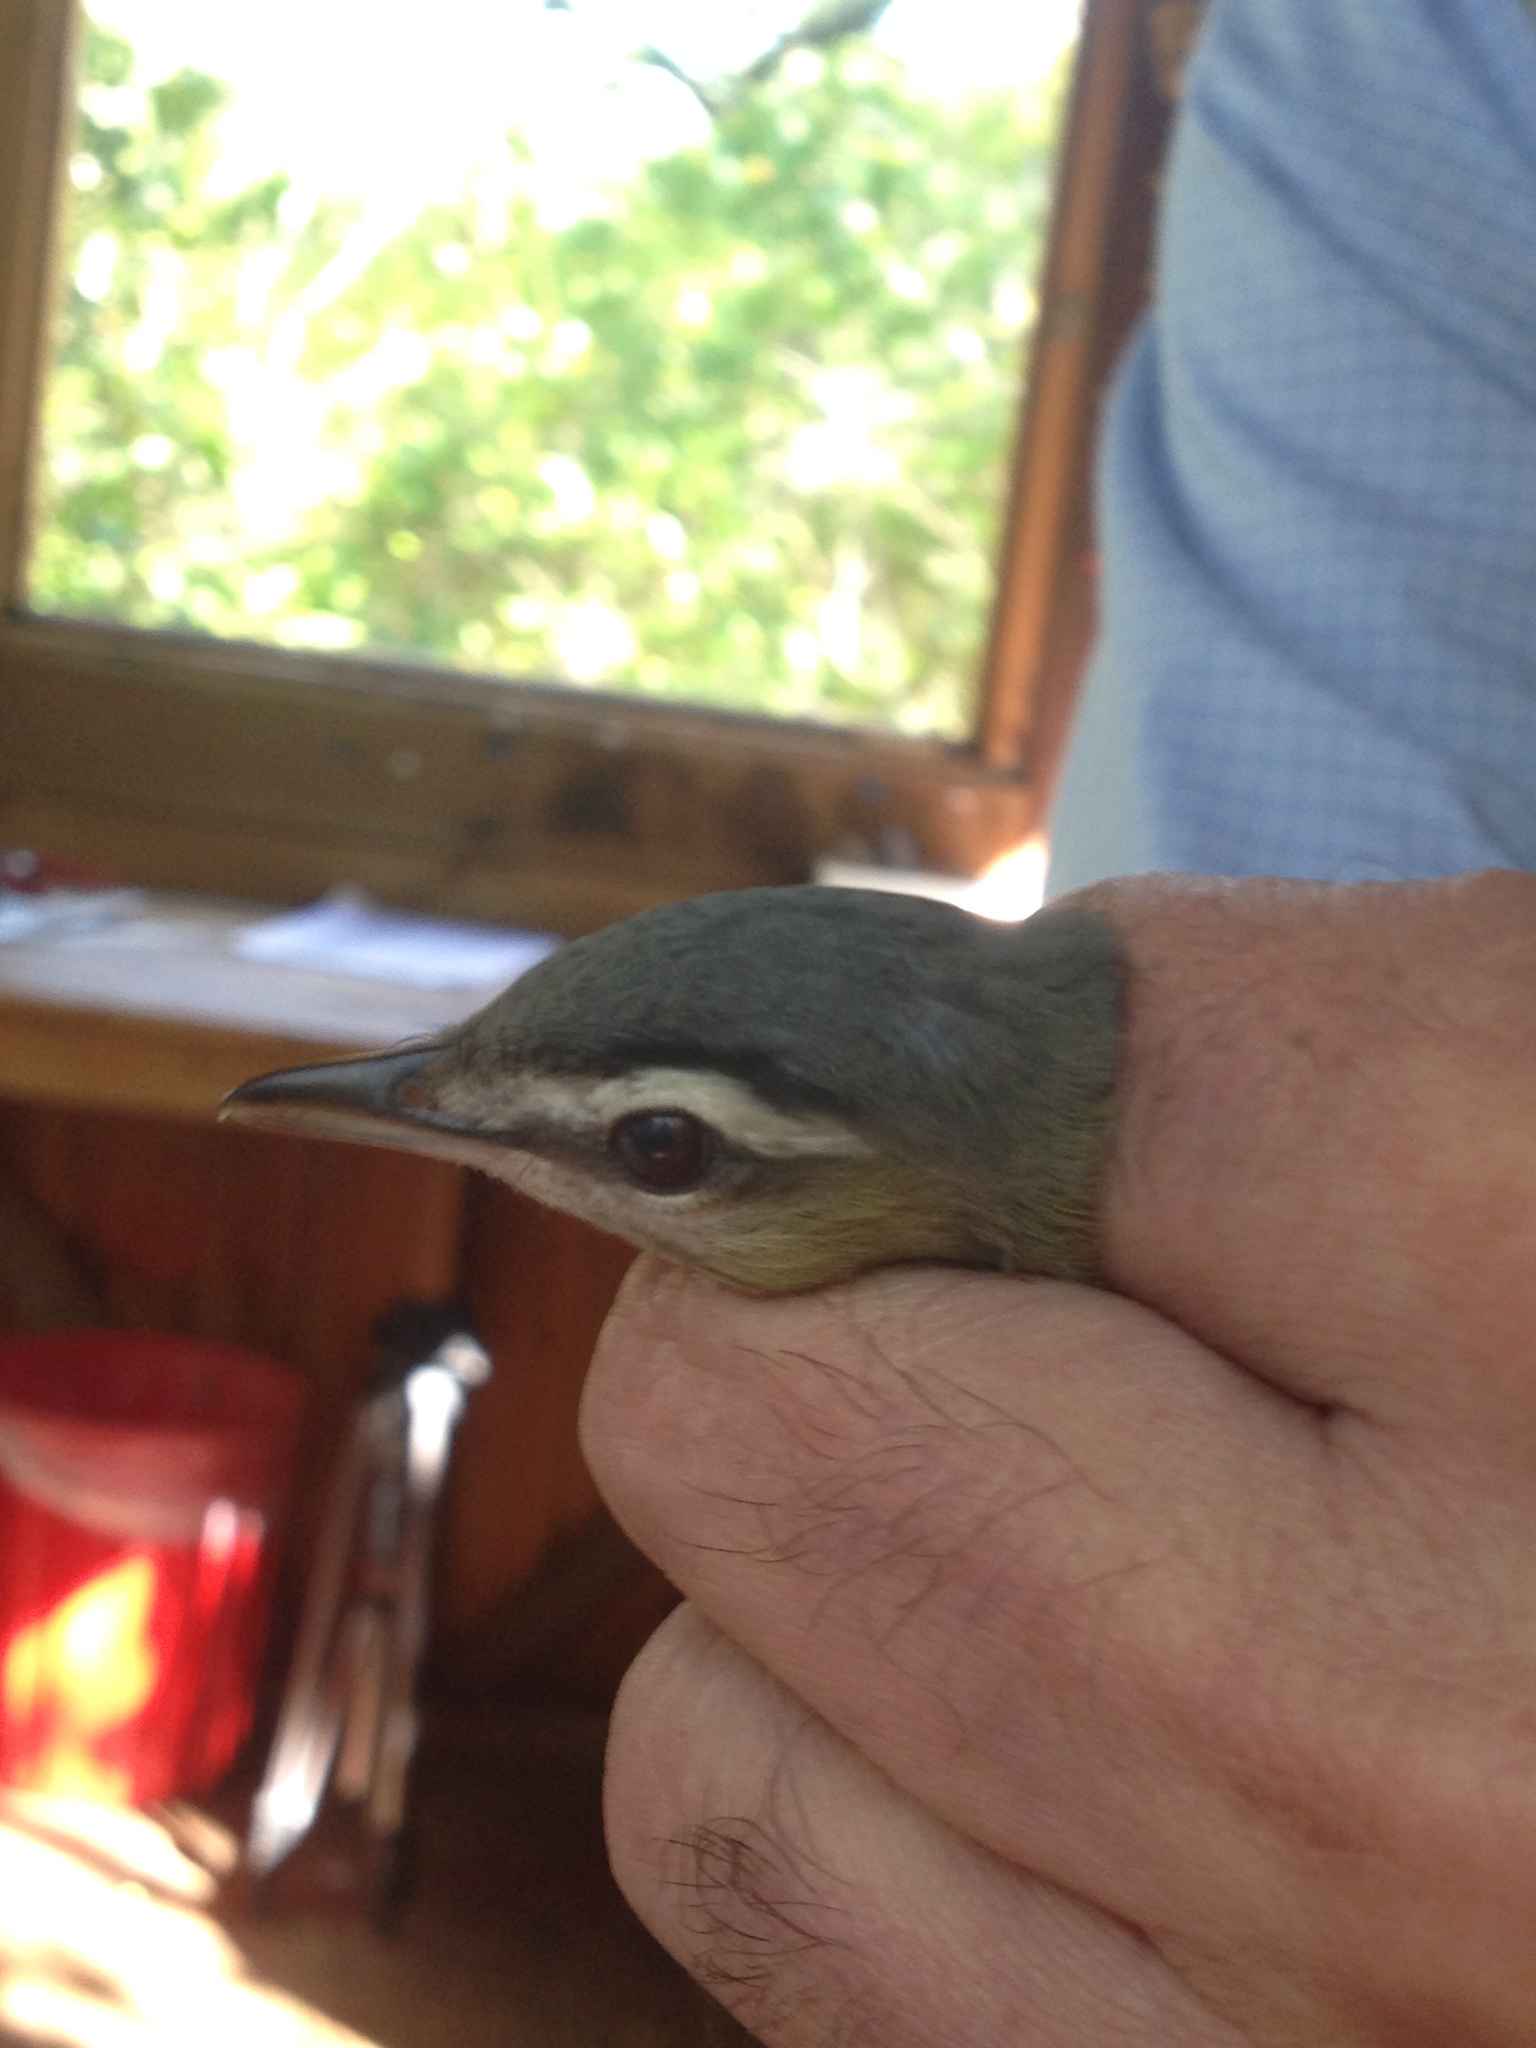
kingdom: Animalia
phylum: Chordata
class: Aves
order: Passeriformes
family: Vireonidae
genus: Vireo
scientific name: Vireo olivaceus
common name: Red-eyed vireo
